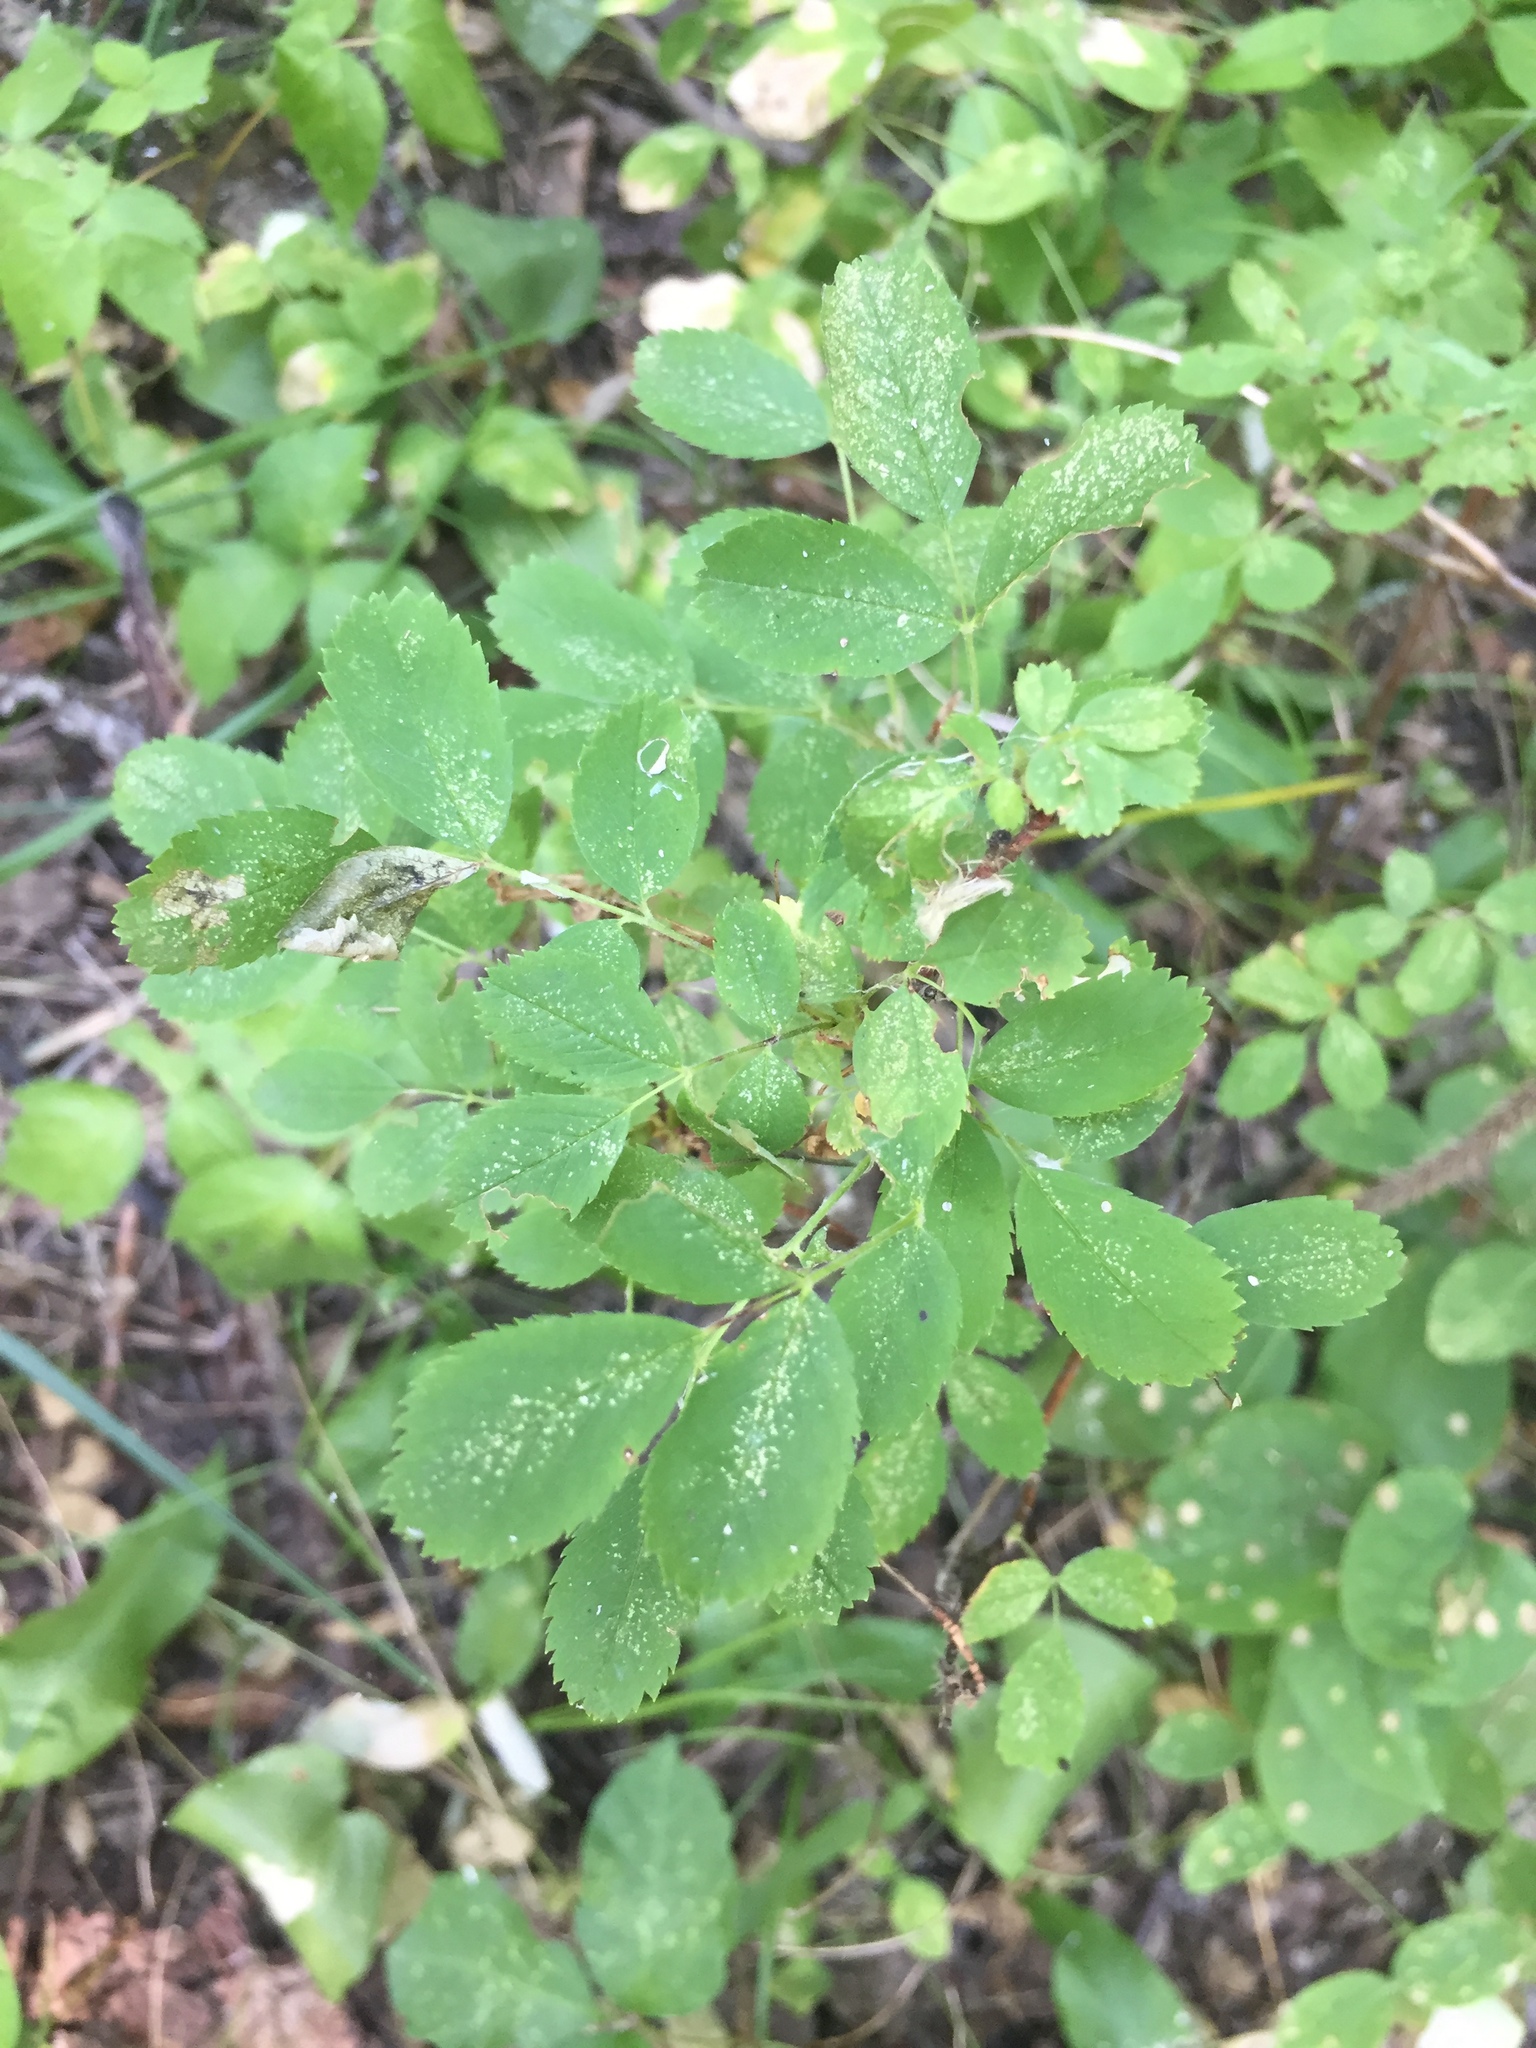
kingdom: Plantae
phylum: Tracheophyta
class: Magnoliopsida
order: Rosales
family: Rosaceae
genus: Rosa
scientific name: Rosa woodsii
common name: Woods's rose
